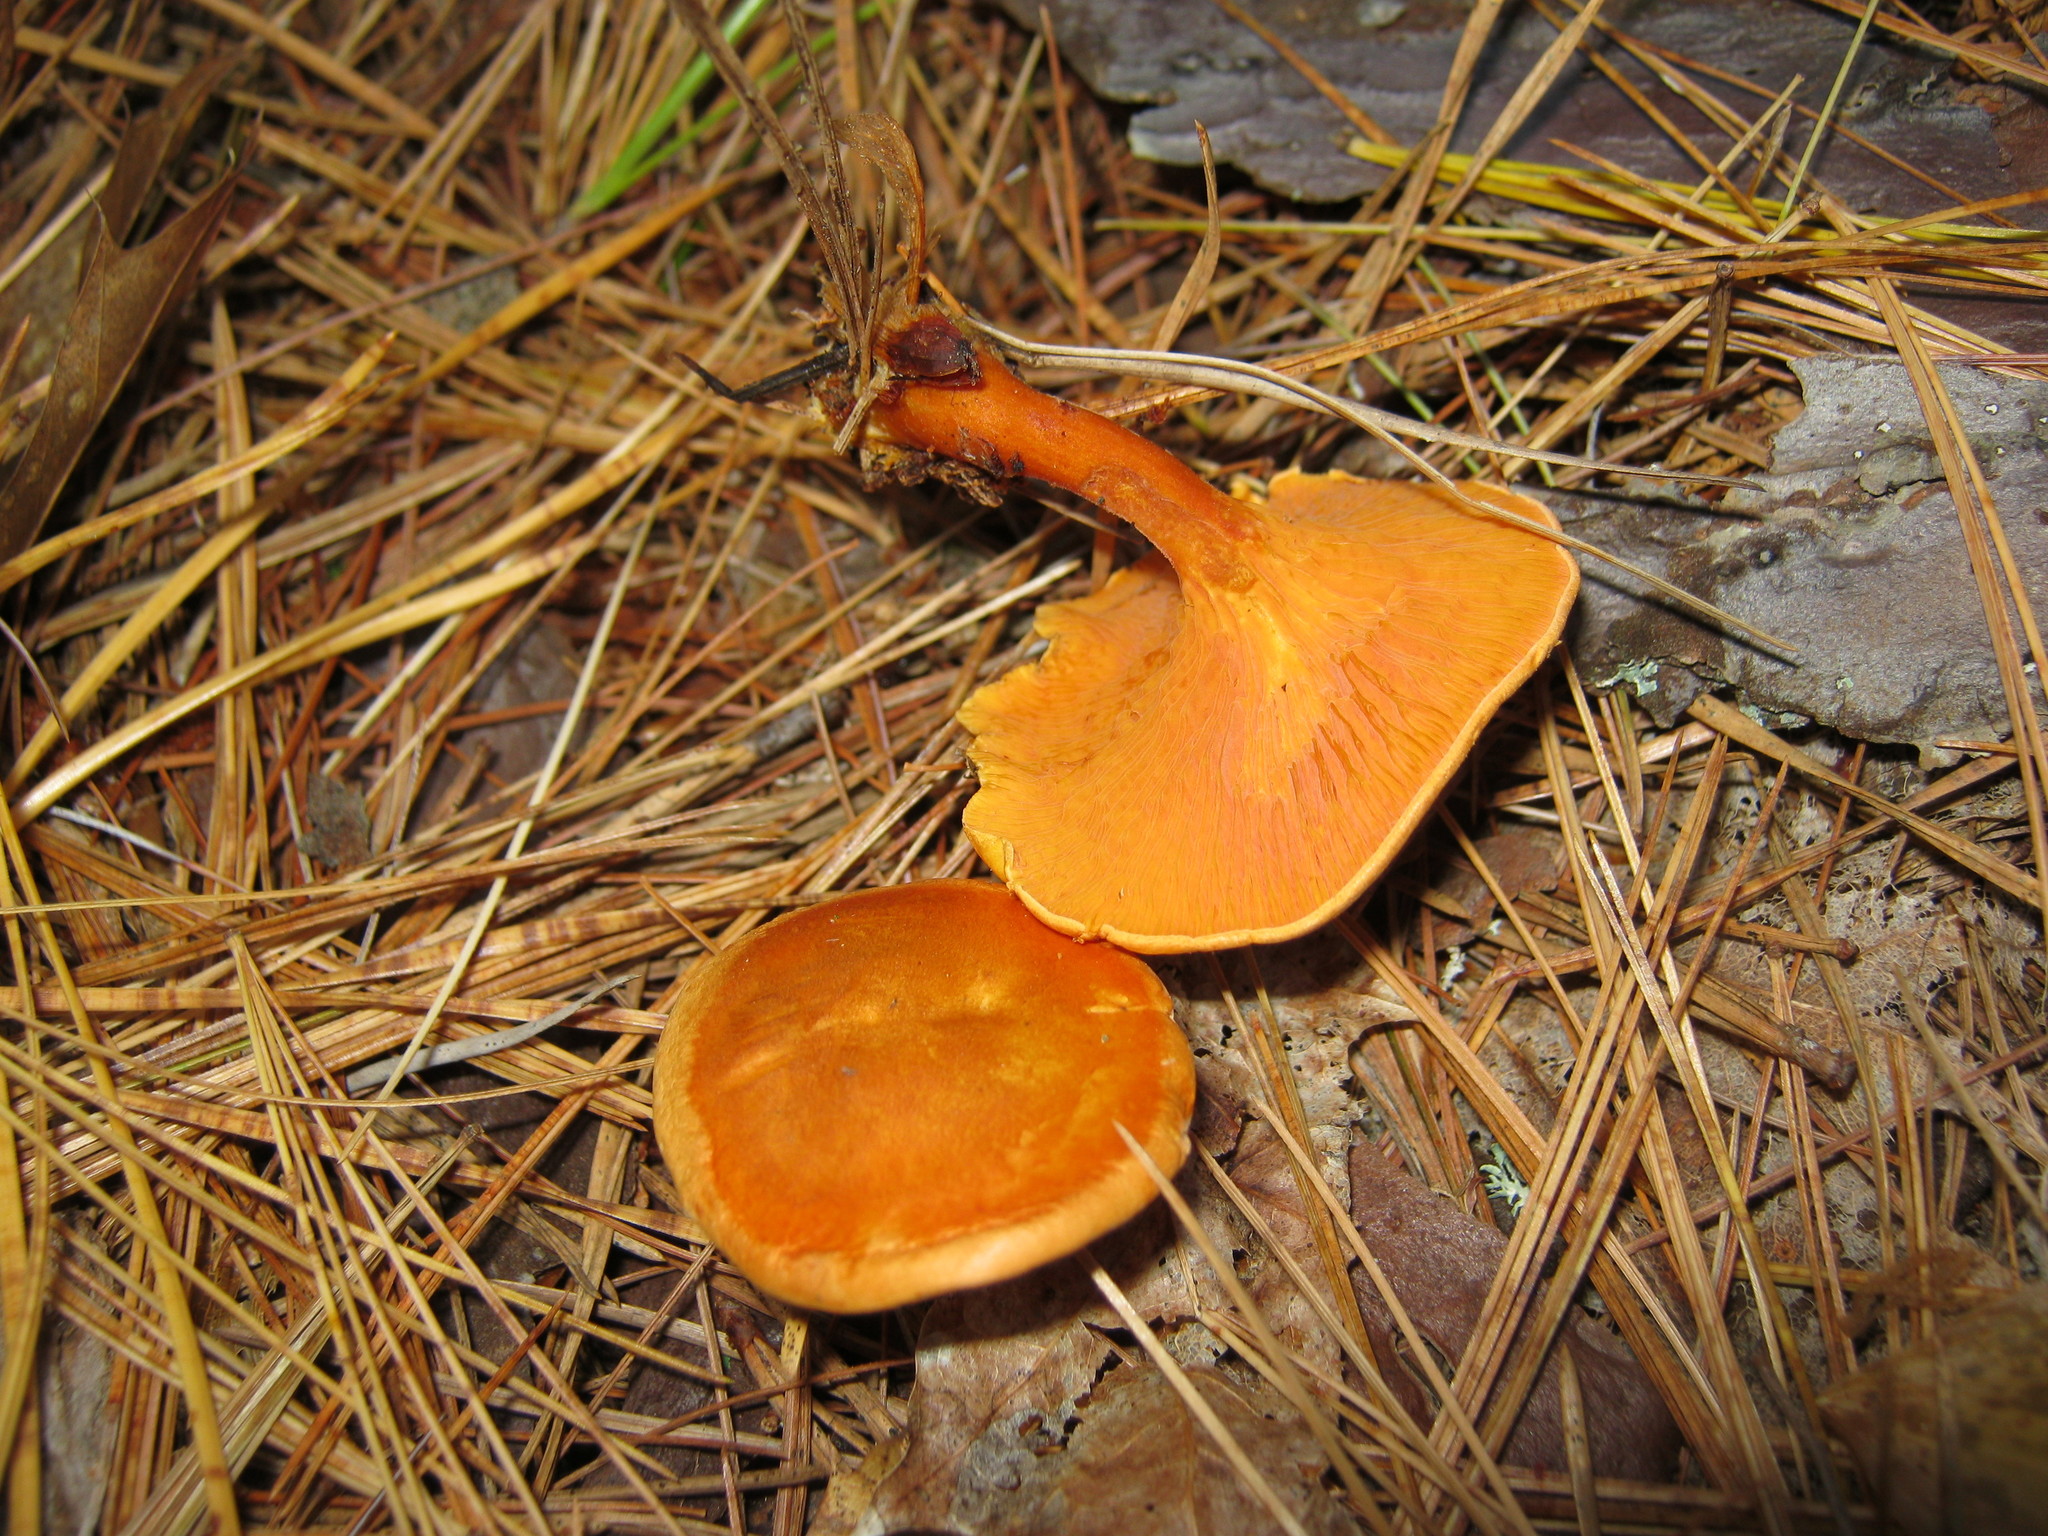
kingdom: Fungi
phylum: Basidiomycota
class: Agaricomycetes
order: Boletales
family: Hygrophoropsidaceae
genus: Hygrophoropsis
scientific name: Hygrophoropsis aurantiaca
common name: False chanterelle
